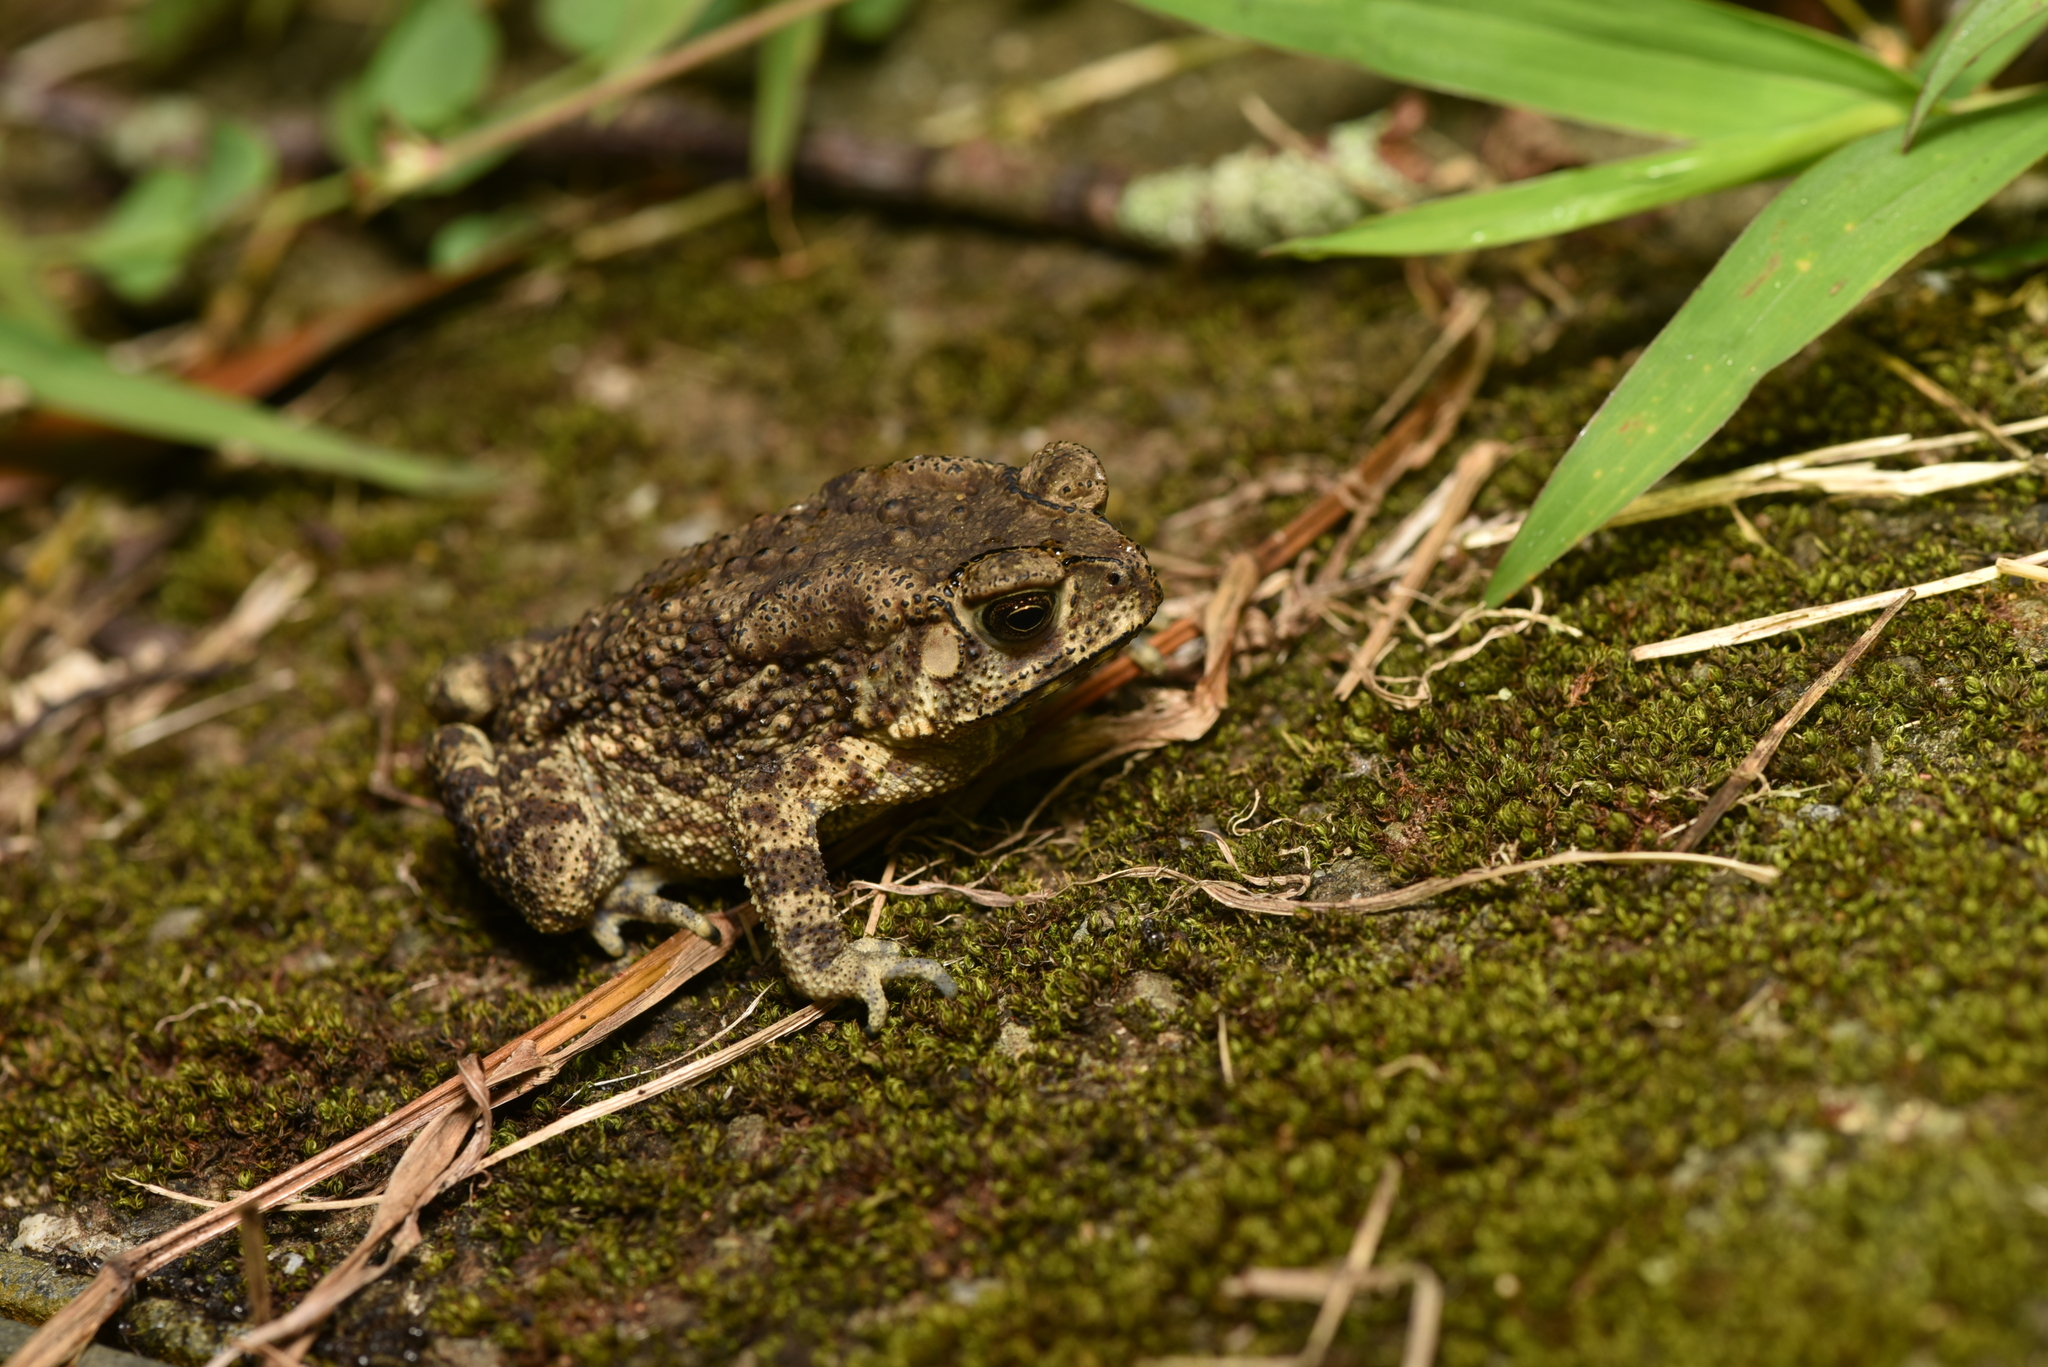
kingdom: Animalia
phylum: Chordata
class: Amphibia
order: Anura
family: Bufonidae
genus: Duttaphrynus
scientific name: Duttaphrynus melanostictus
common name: Common sunda toad
